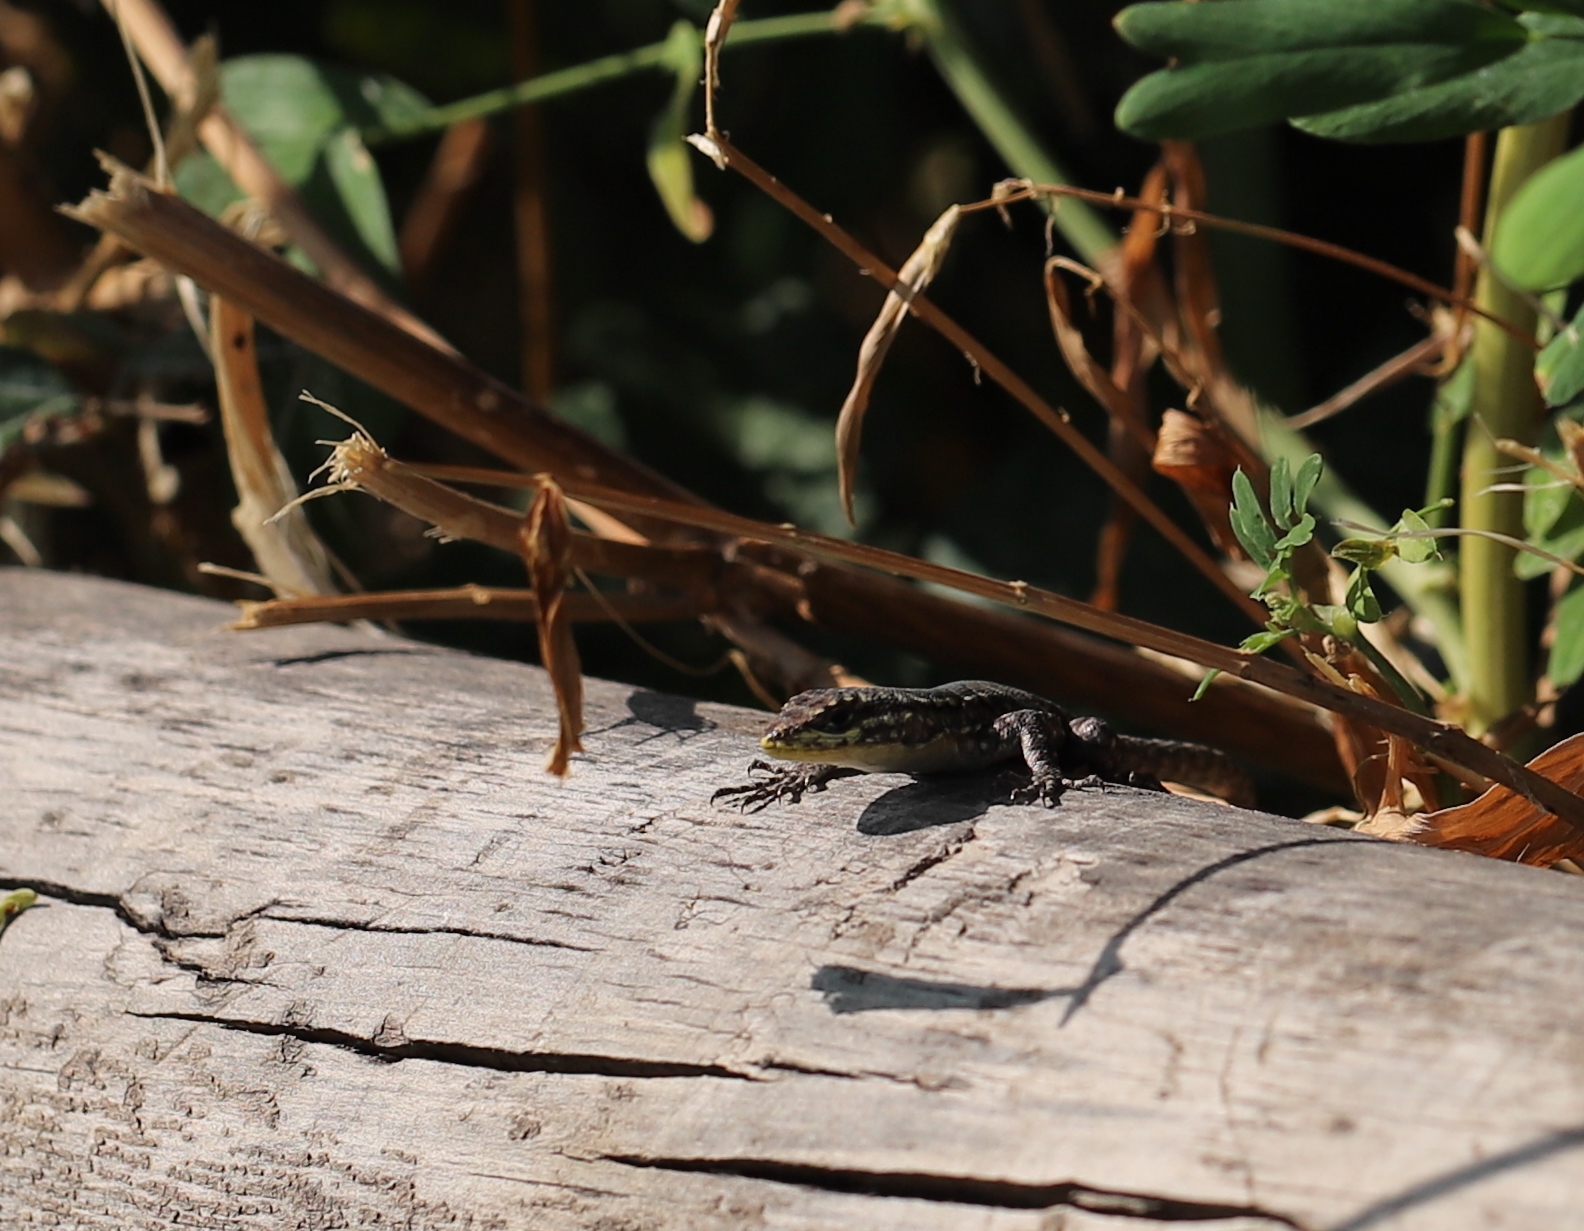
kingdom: Animalia
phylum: Chordata
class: Squamata
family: Liolaemidae
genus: Liolaemus
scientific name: Liolaemus tenuis
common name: Thin tree iguana
